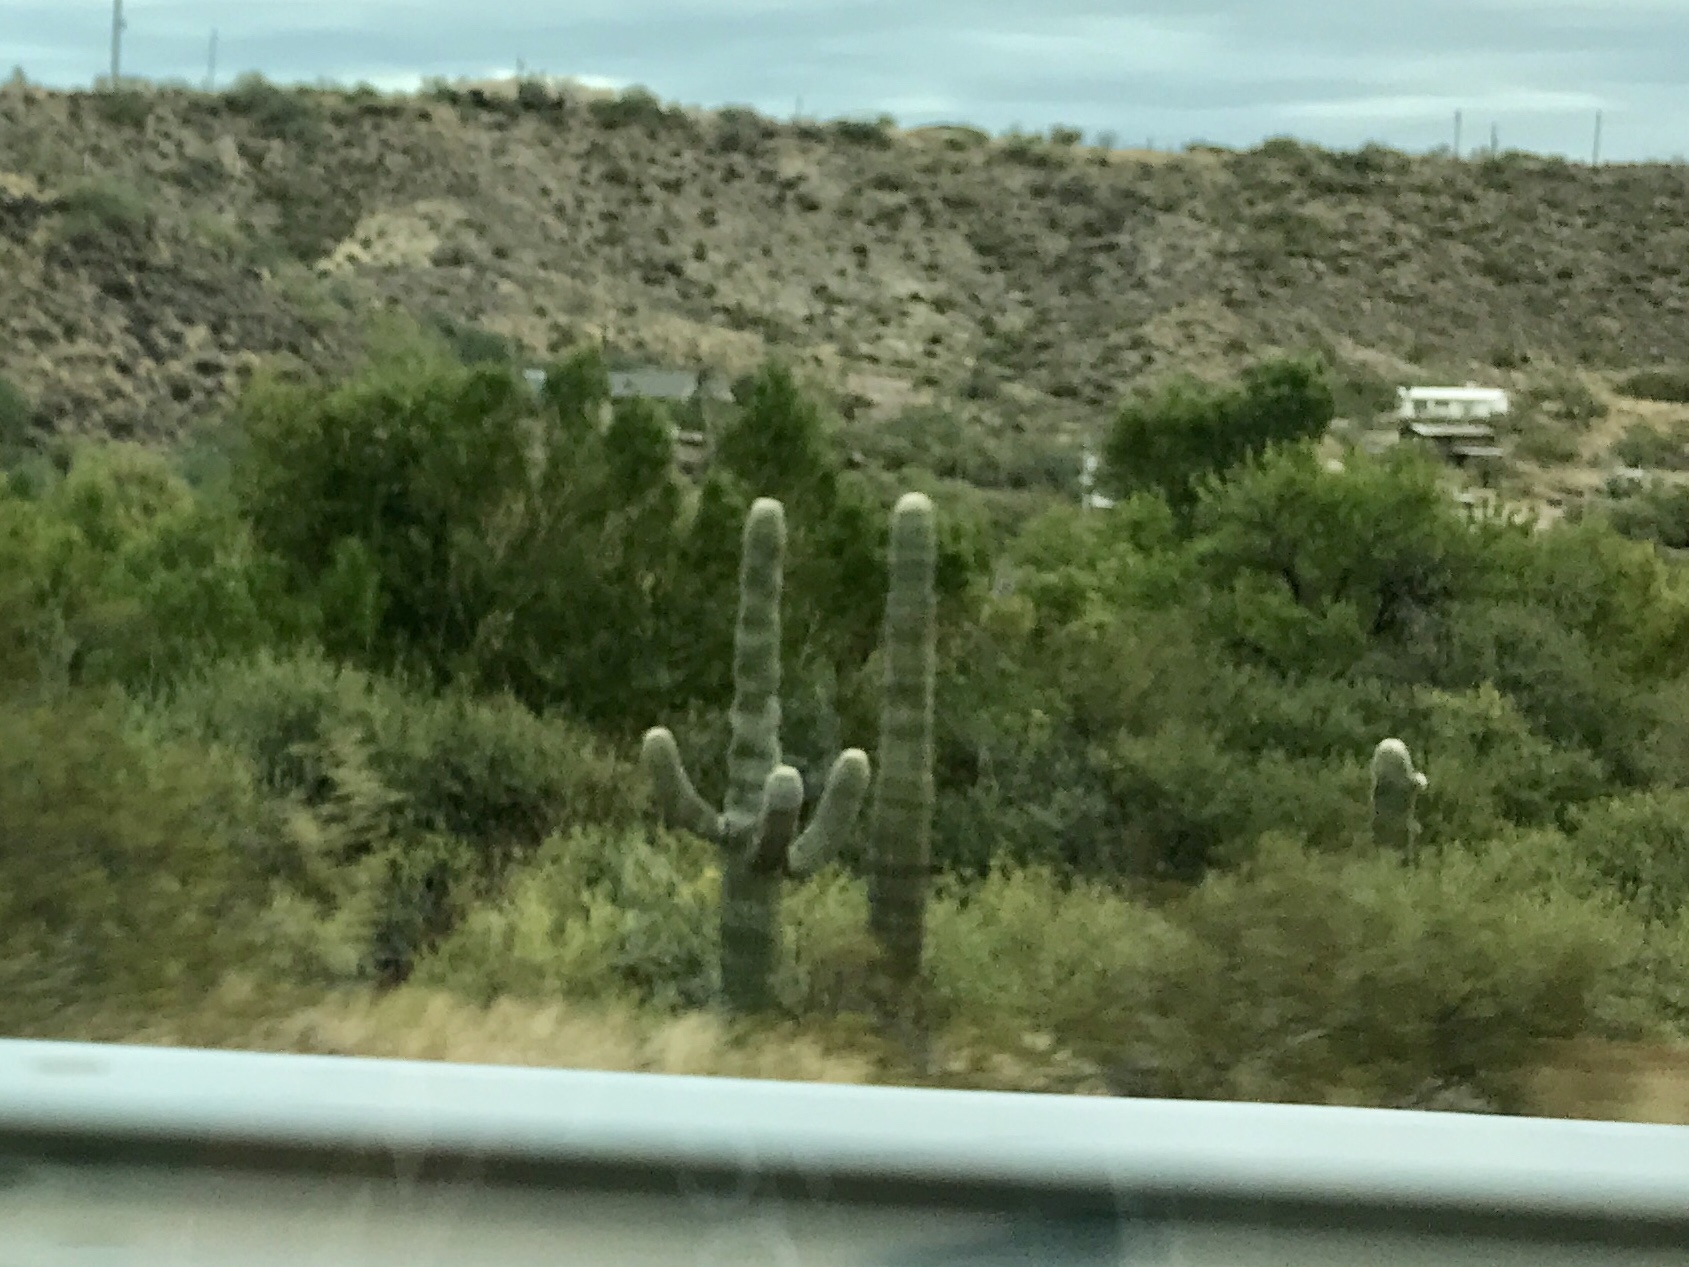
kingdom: Plantae
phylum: Tracheophyta
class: Magnoliopsida
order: Caryophyllales
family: Cactaceae
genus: Carnegiea
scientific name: Carnegiea gigantea
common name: Saguaro
